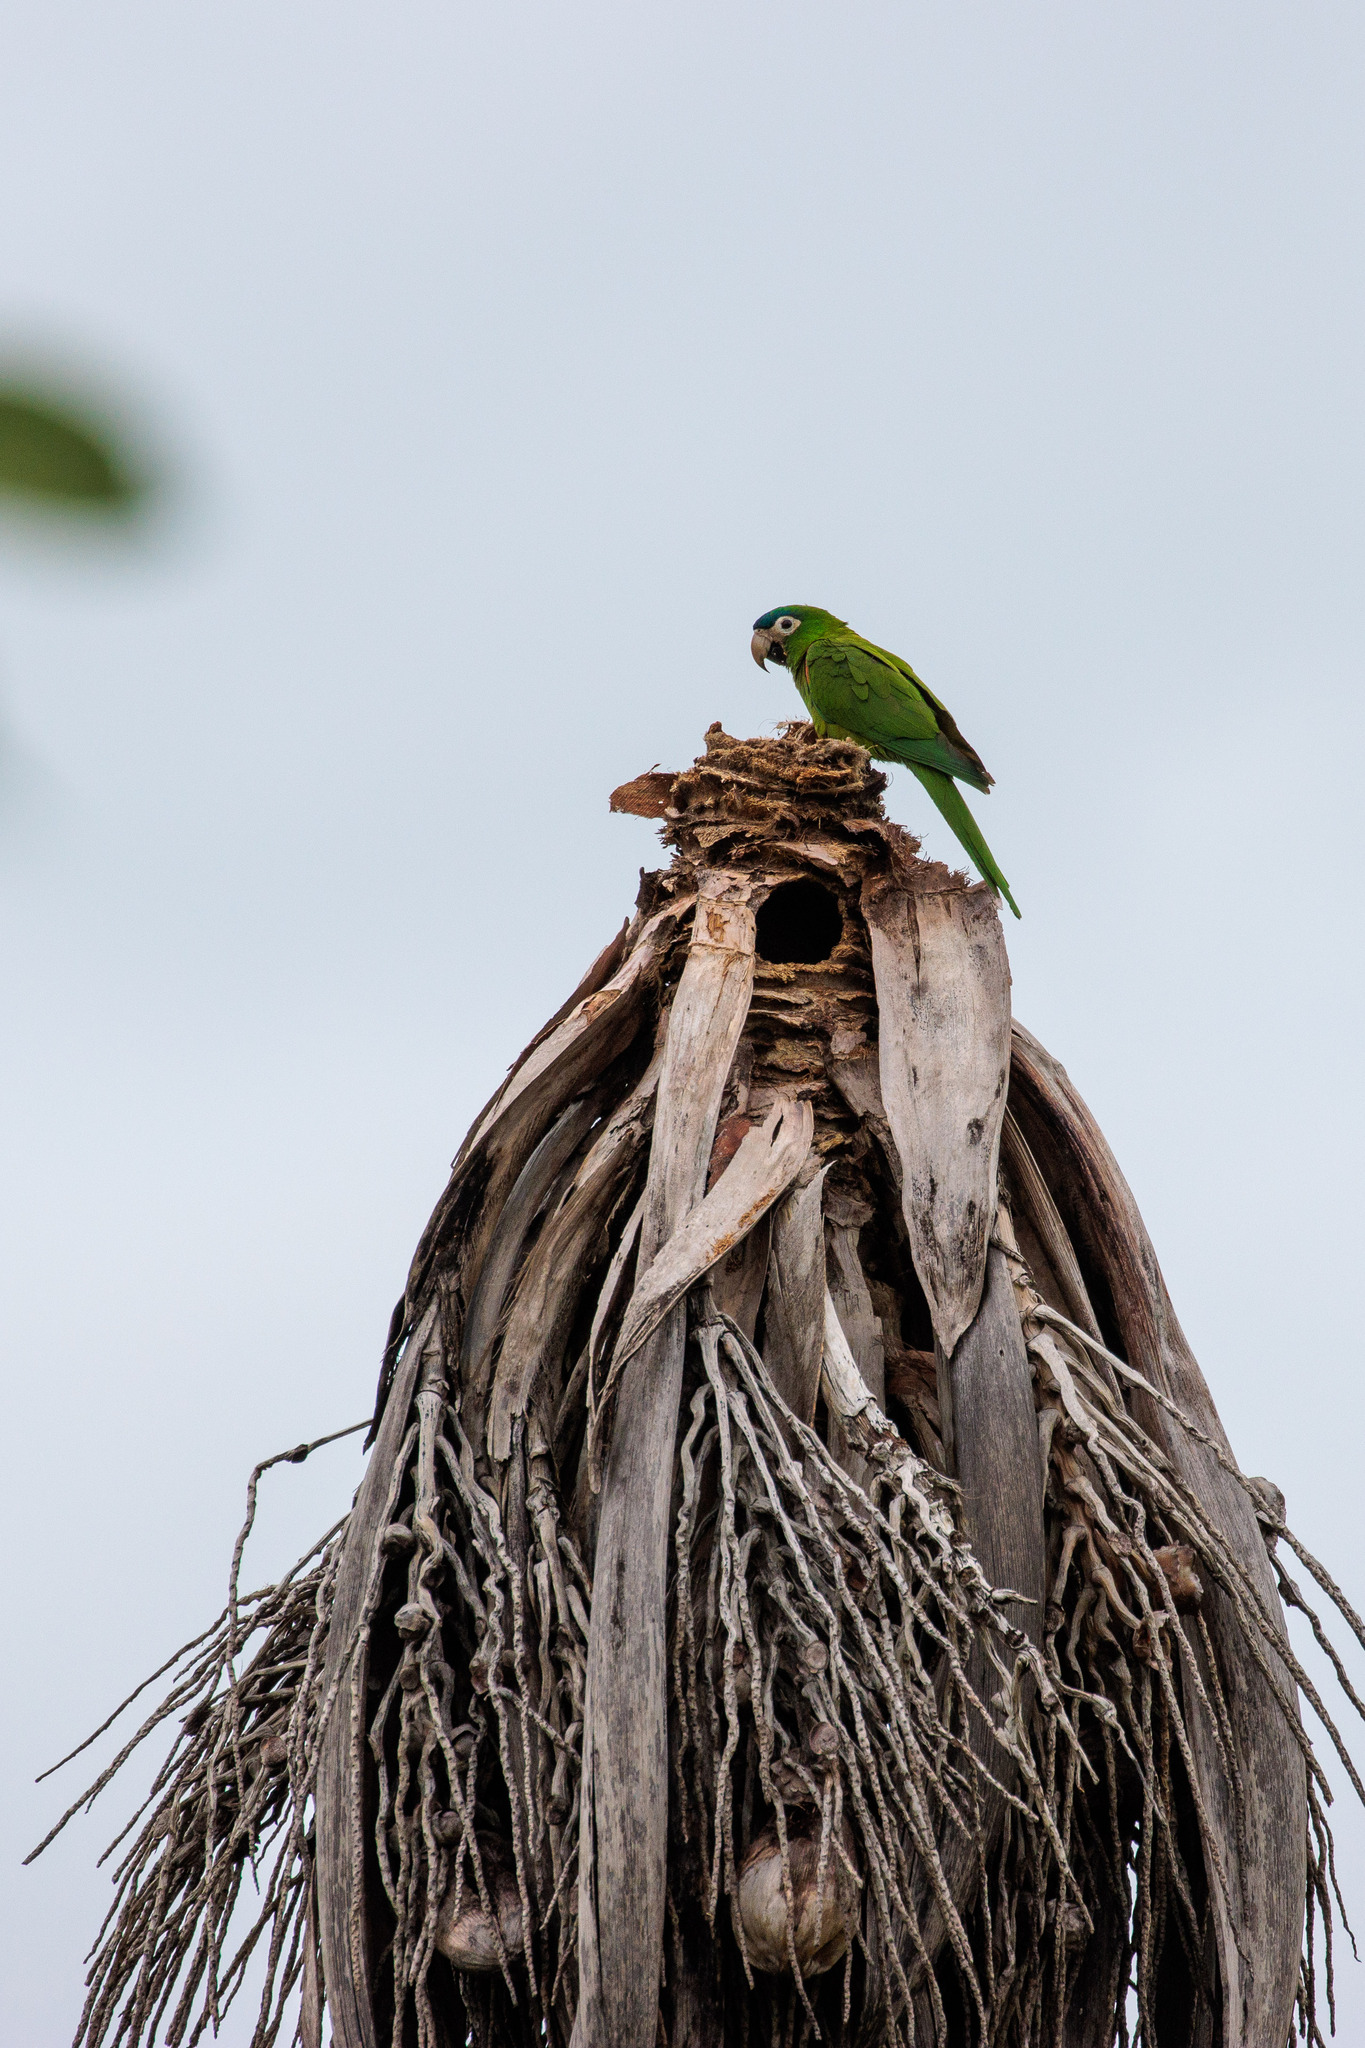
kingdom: Animalia
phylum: Chordata
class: Aves
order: Psittaciformes
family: Psittacidae
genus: Diopsittaca
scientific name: Diopsittaca nobilis
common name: Red-shouldered macaw
